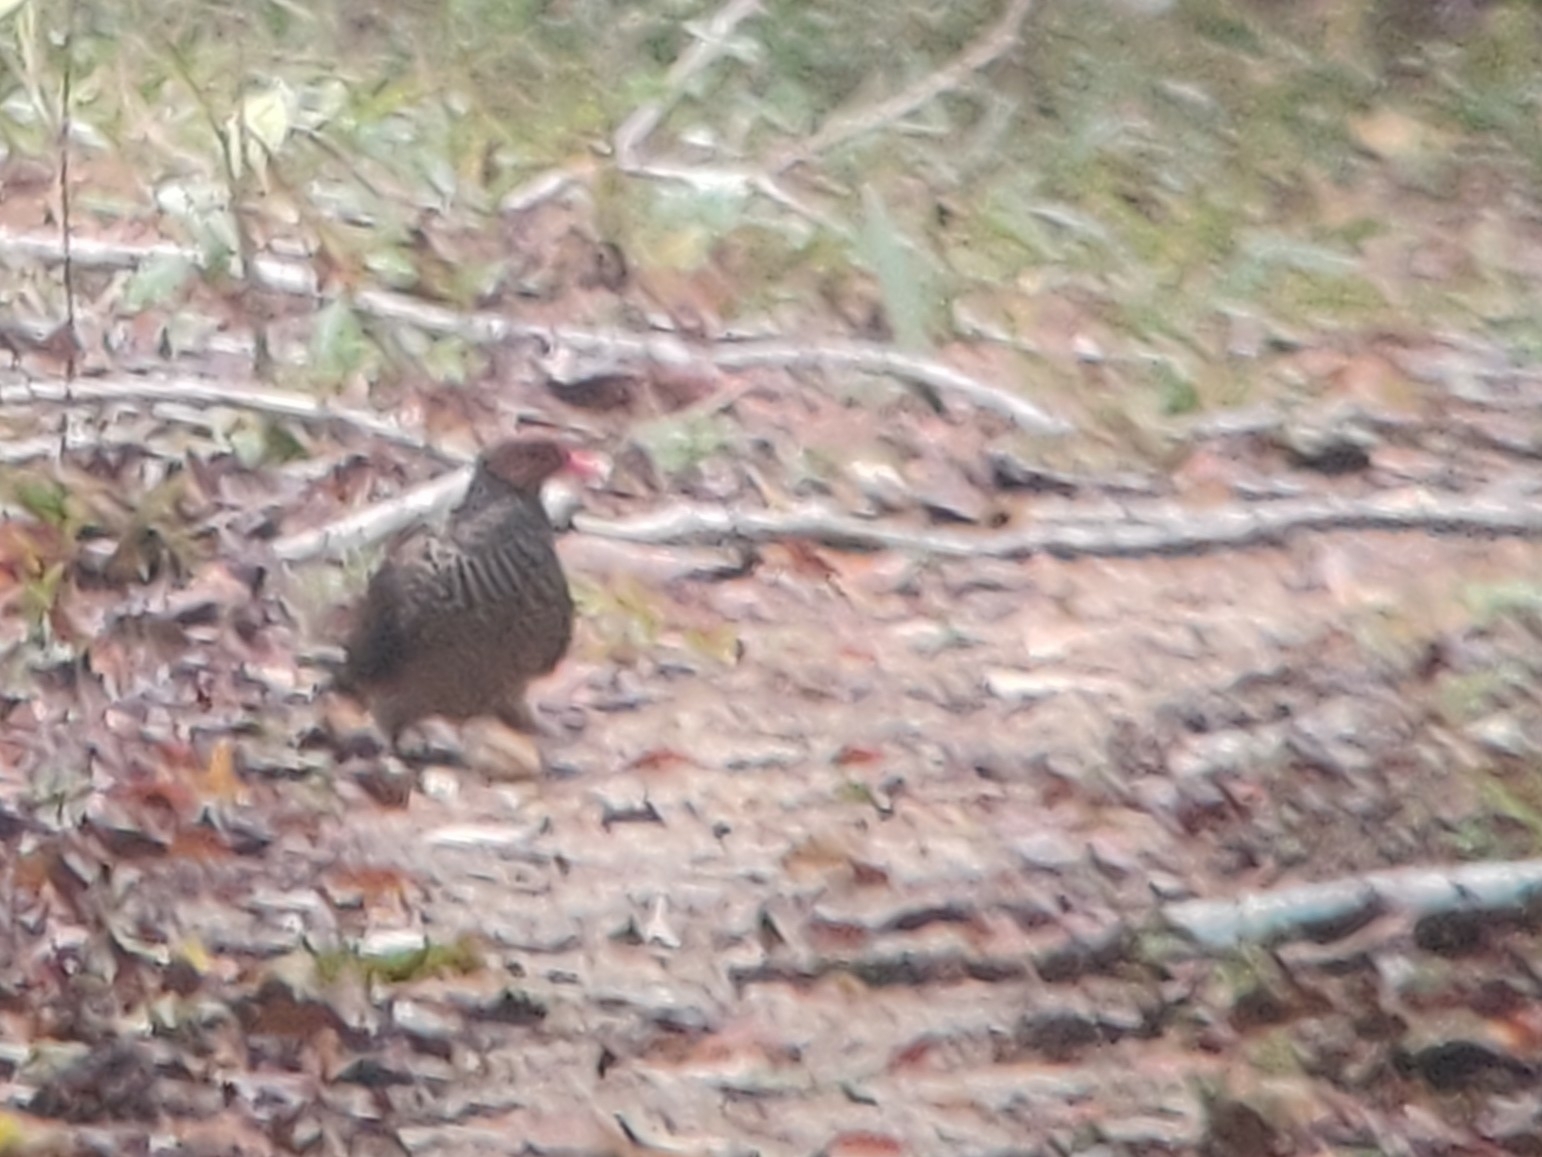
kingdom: Animalia
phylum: Chordata
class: Aves
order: Columbiformes
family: Columbidae
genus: Patagioenas
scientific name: Patagioenas speciosa
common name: Scaled pigeon
